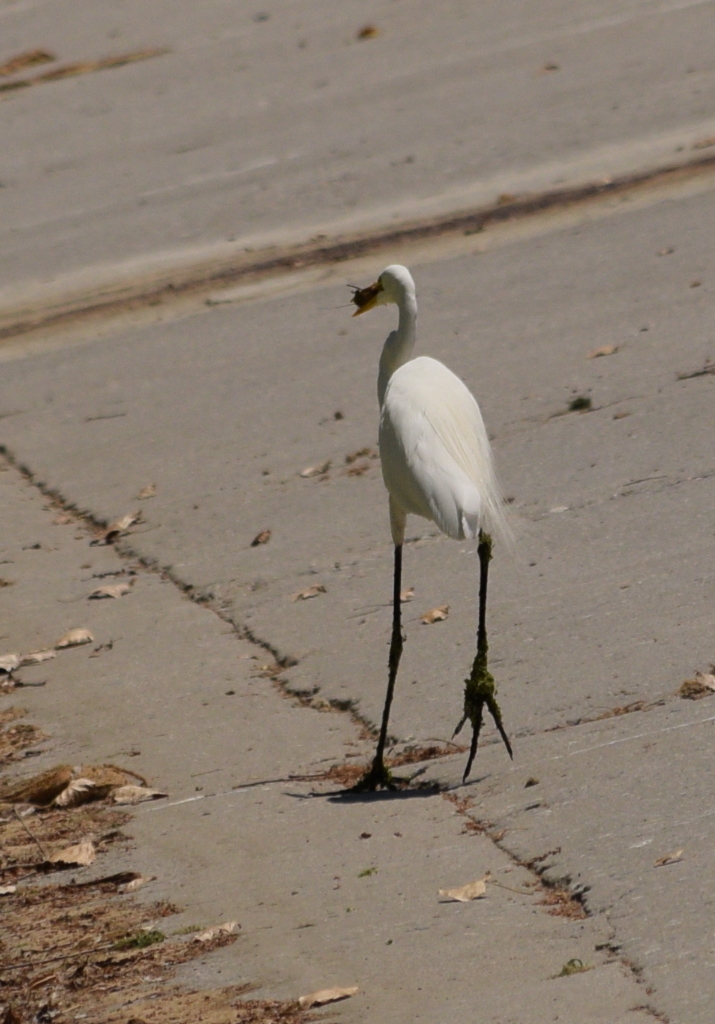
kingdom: Animalia
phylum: Chordata
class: Aves
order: Pelecaniformes
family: Ardeidae
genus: Ardea
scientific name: Ardea alba
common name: Great egret
